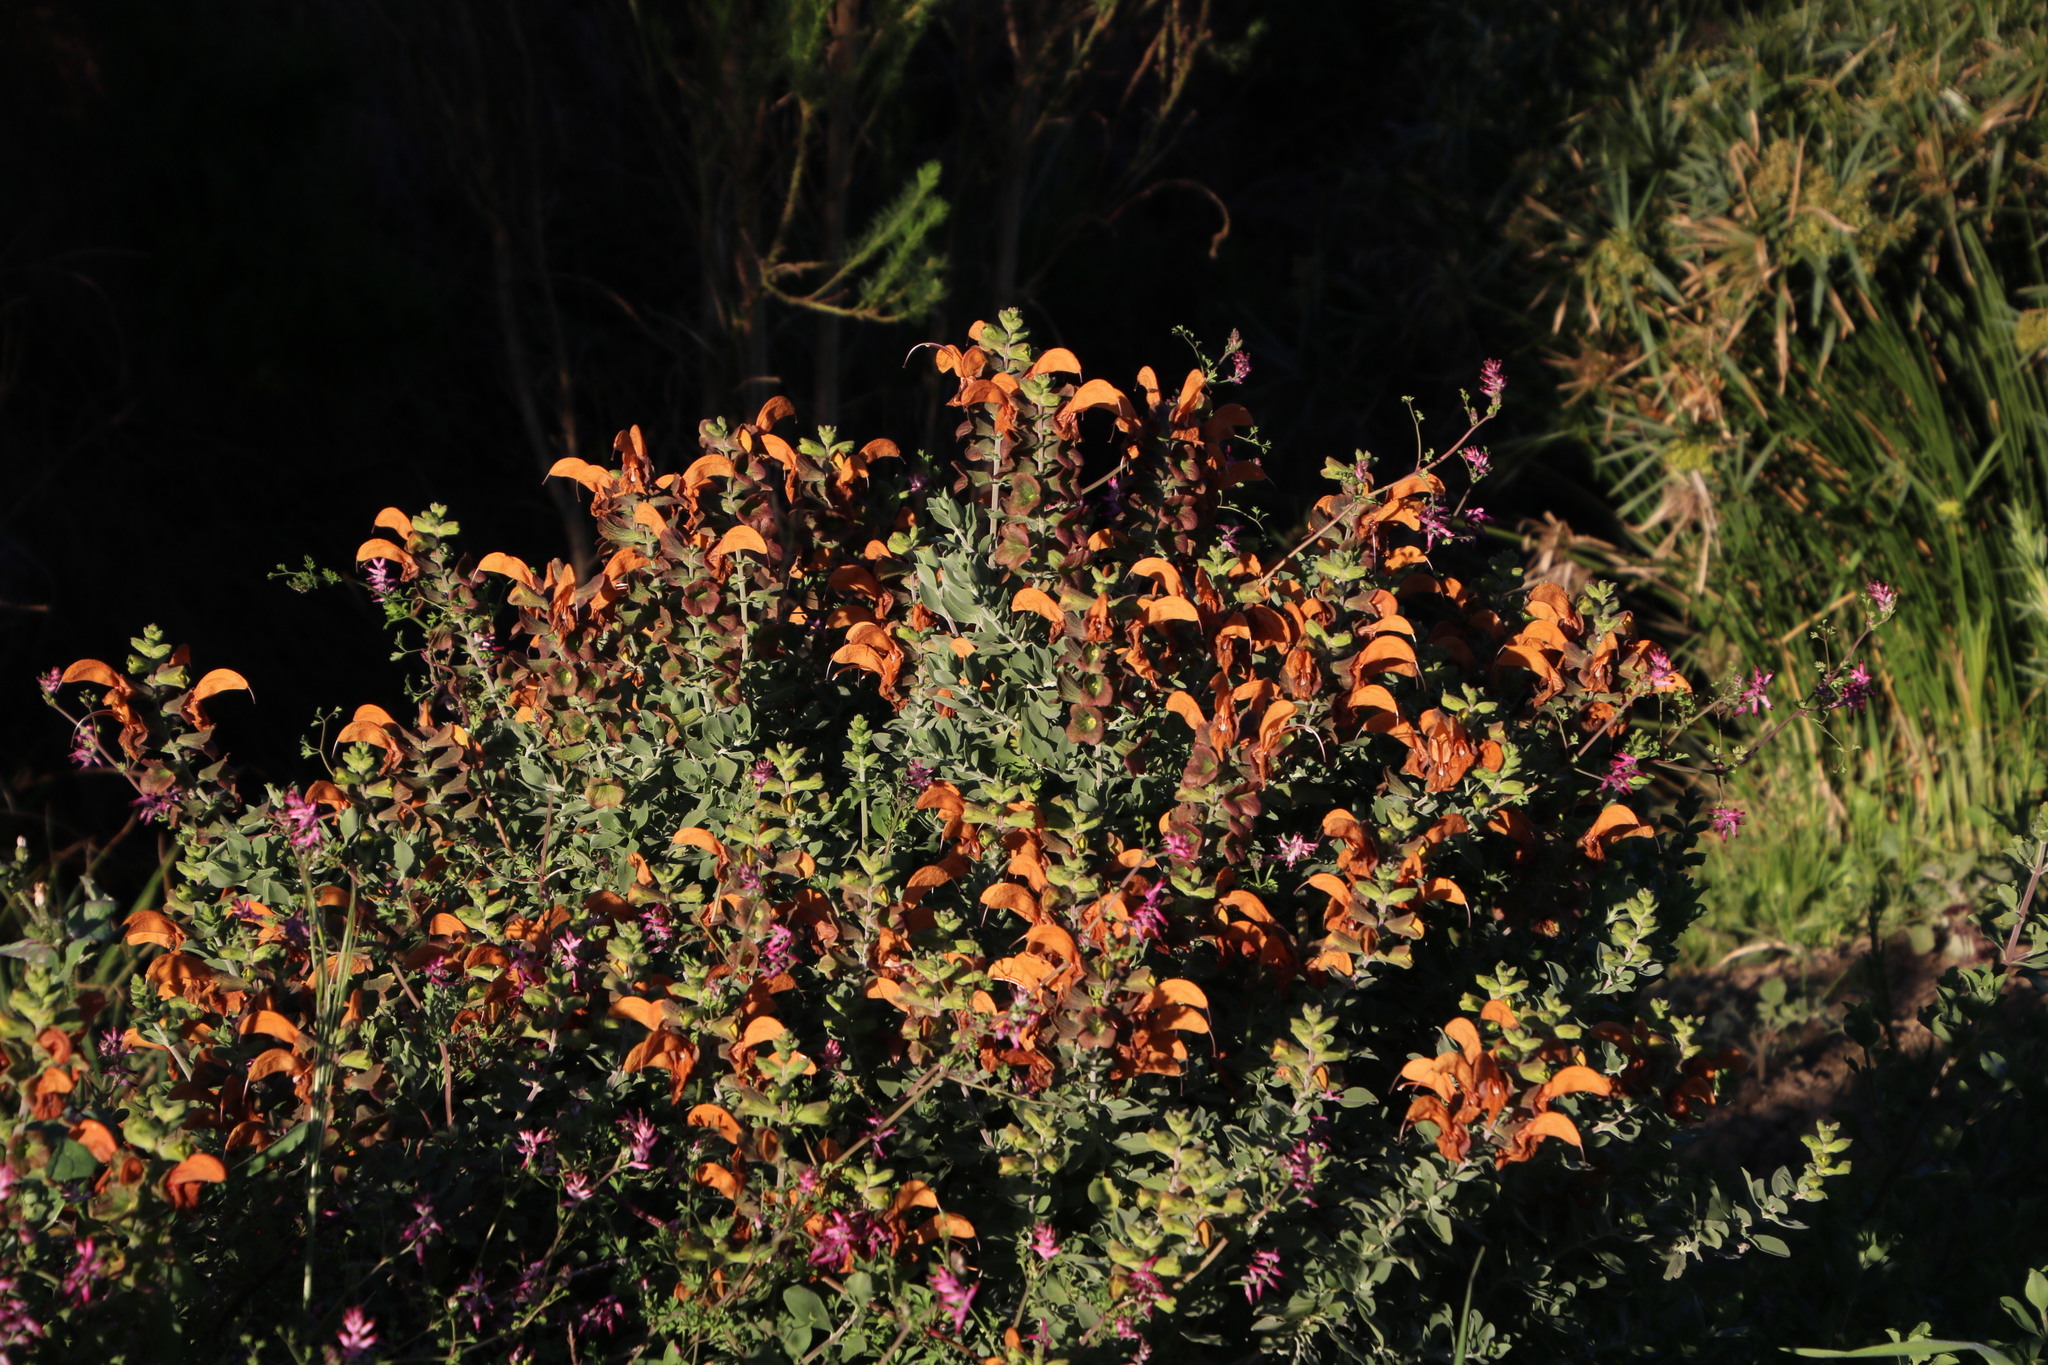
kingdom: Plantae
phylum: Tracheophyta
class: Magnoliopsida
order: Lamiales
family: Lamiaceae
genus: Salvia
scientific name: Salvia aurea
